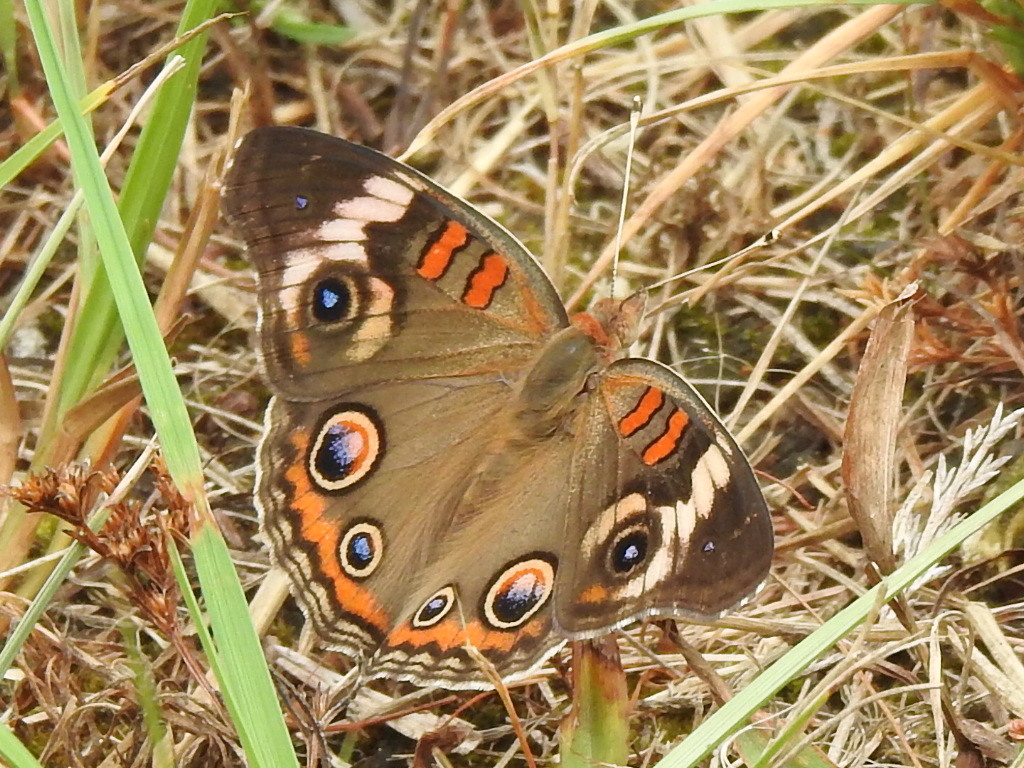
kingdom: Animalia
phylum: Arthropoda
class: Insecta
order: Lepidoptera
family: Nymphalidae
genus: Junonia
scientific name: Junonia coenia
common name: Common buckeye
